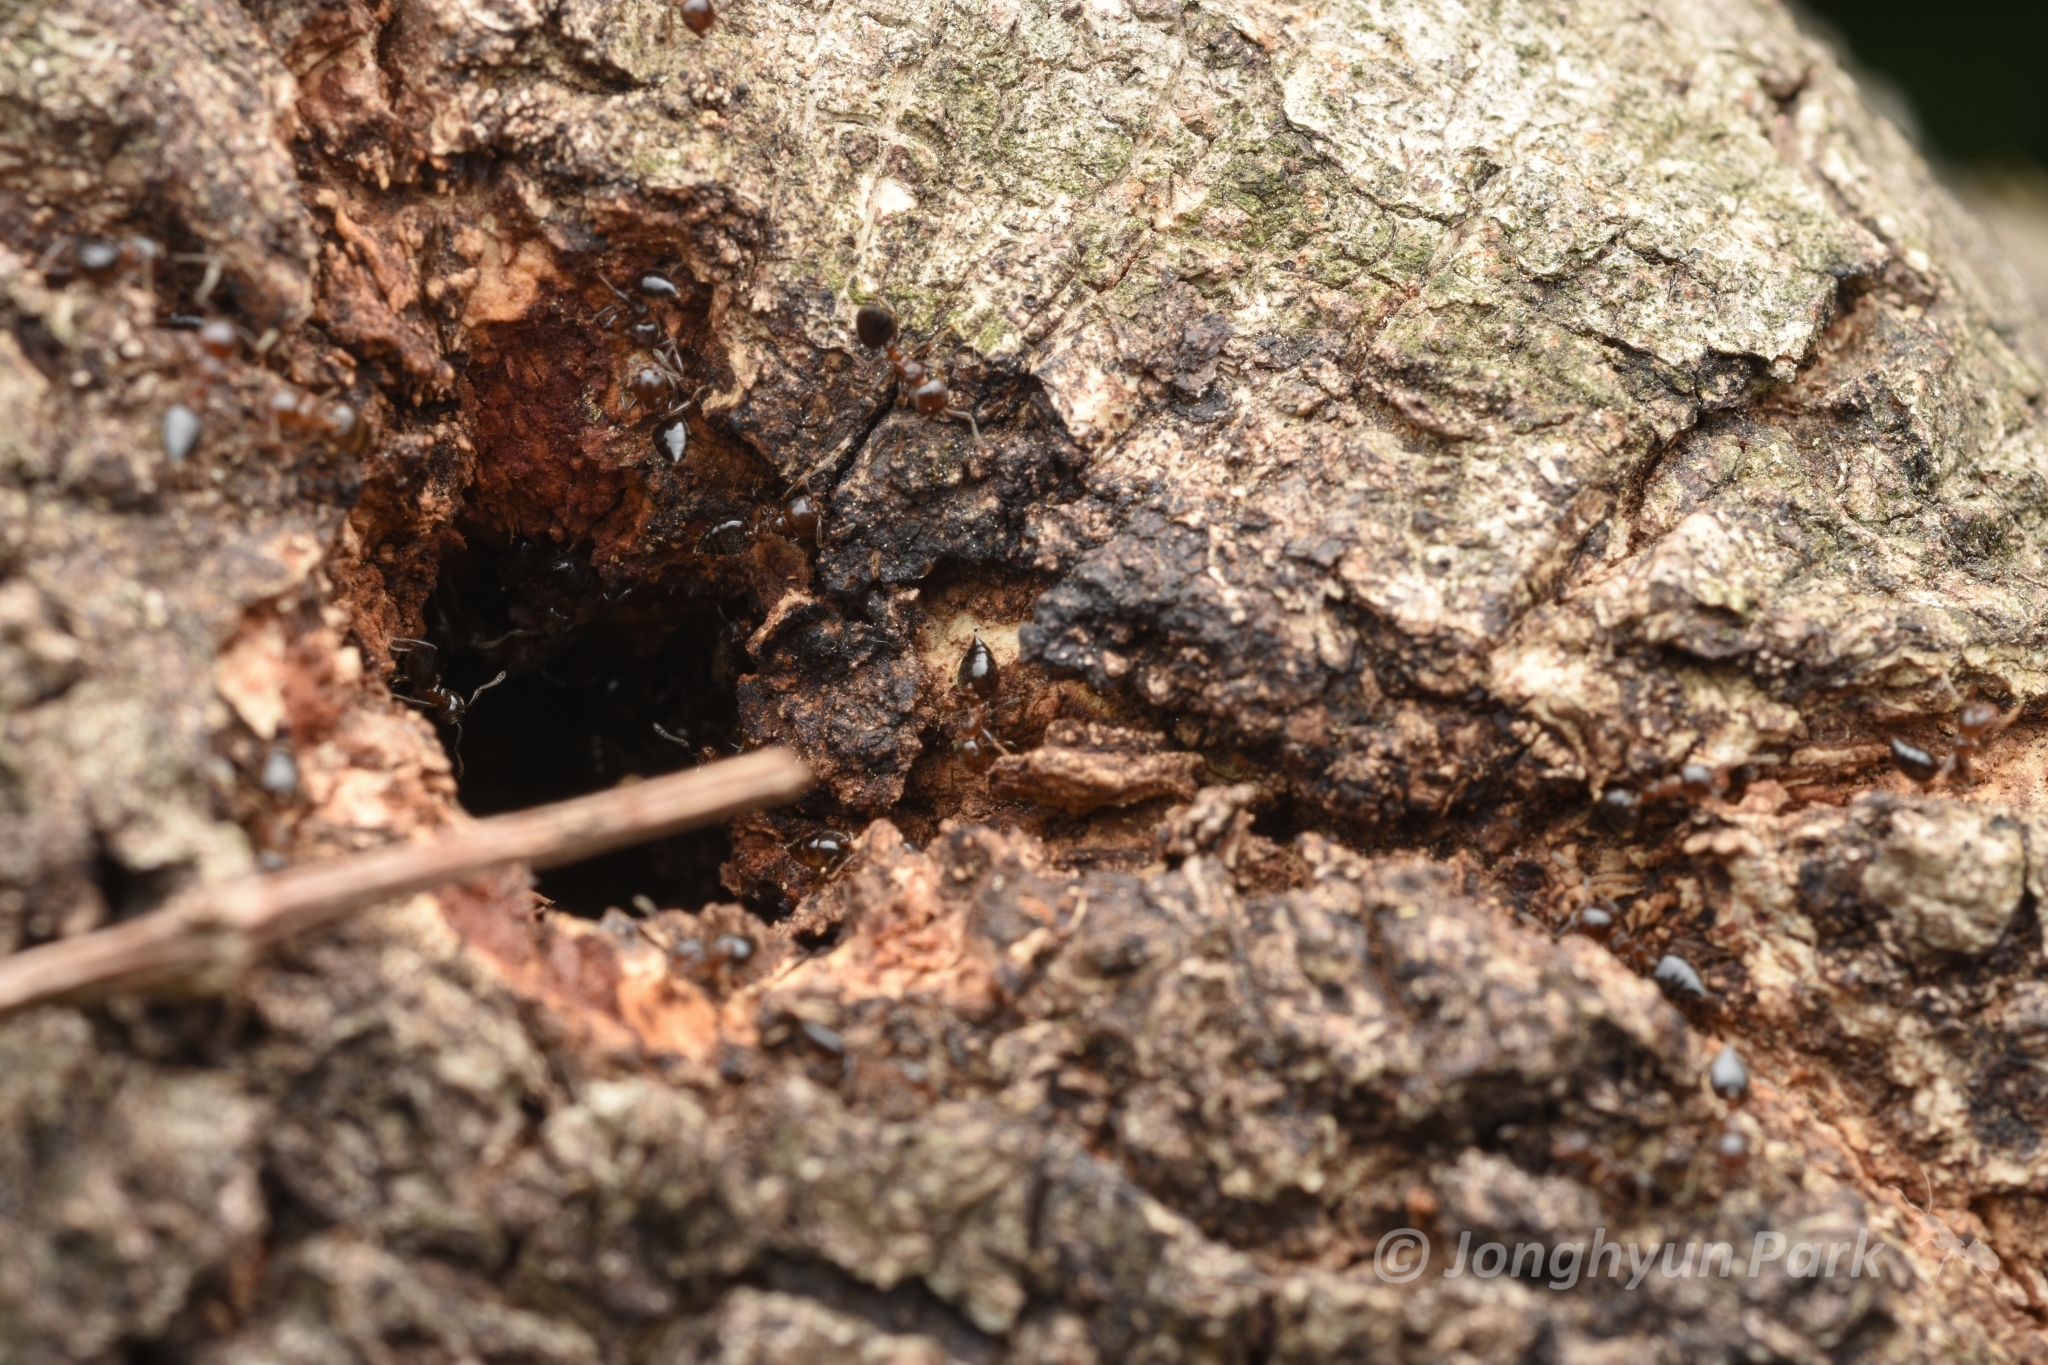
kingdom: Animalia
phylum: Arthropoda
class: Insecta
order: Hymenoptera
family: Formicidae
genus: Crematogaster
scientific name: Crematogaster matsumurai
